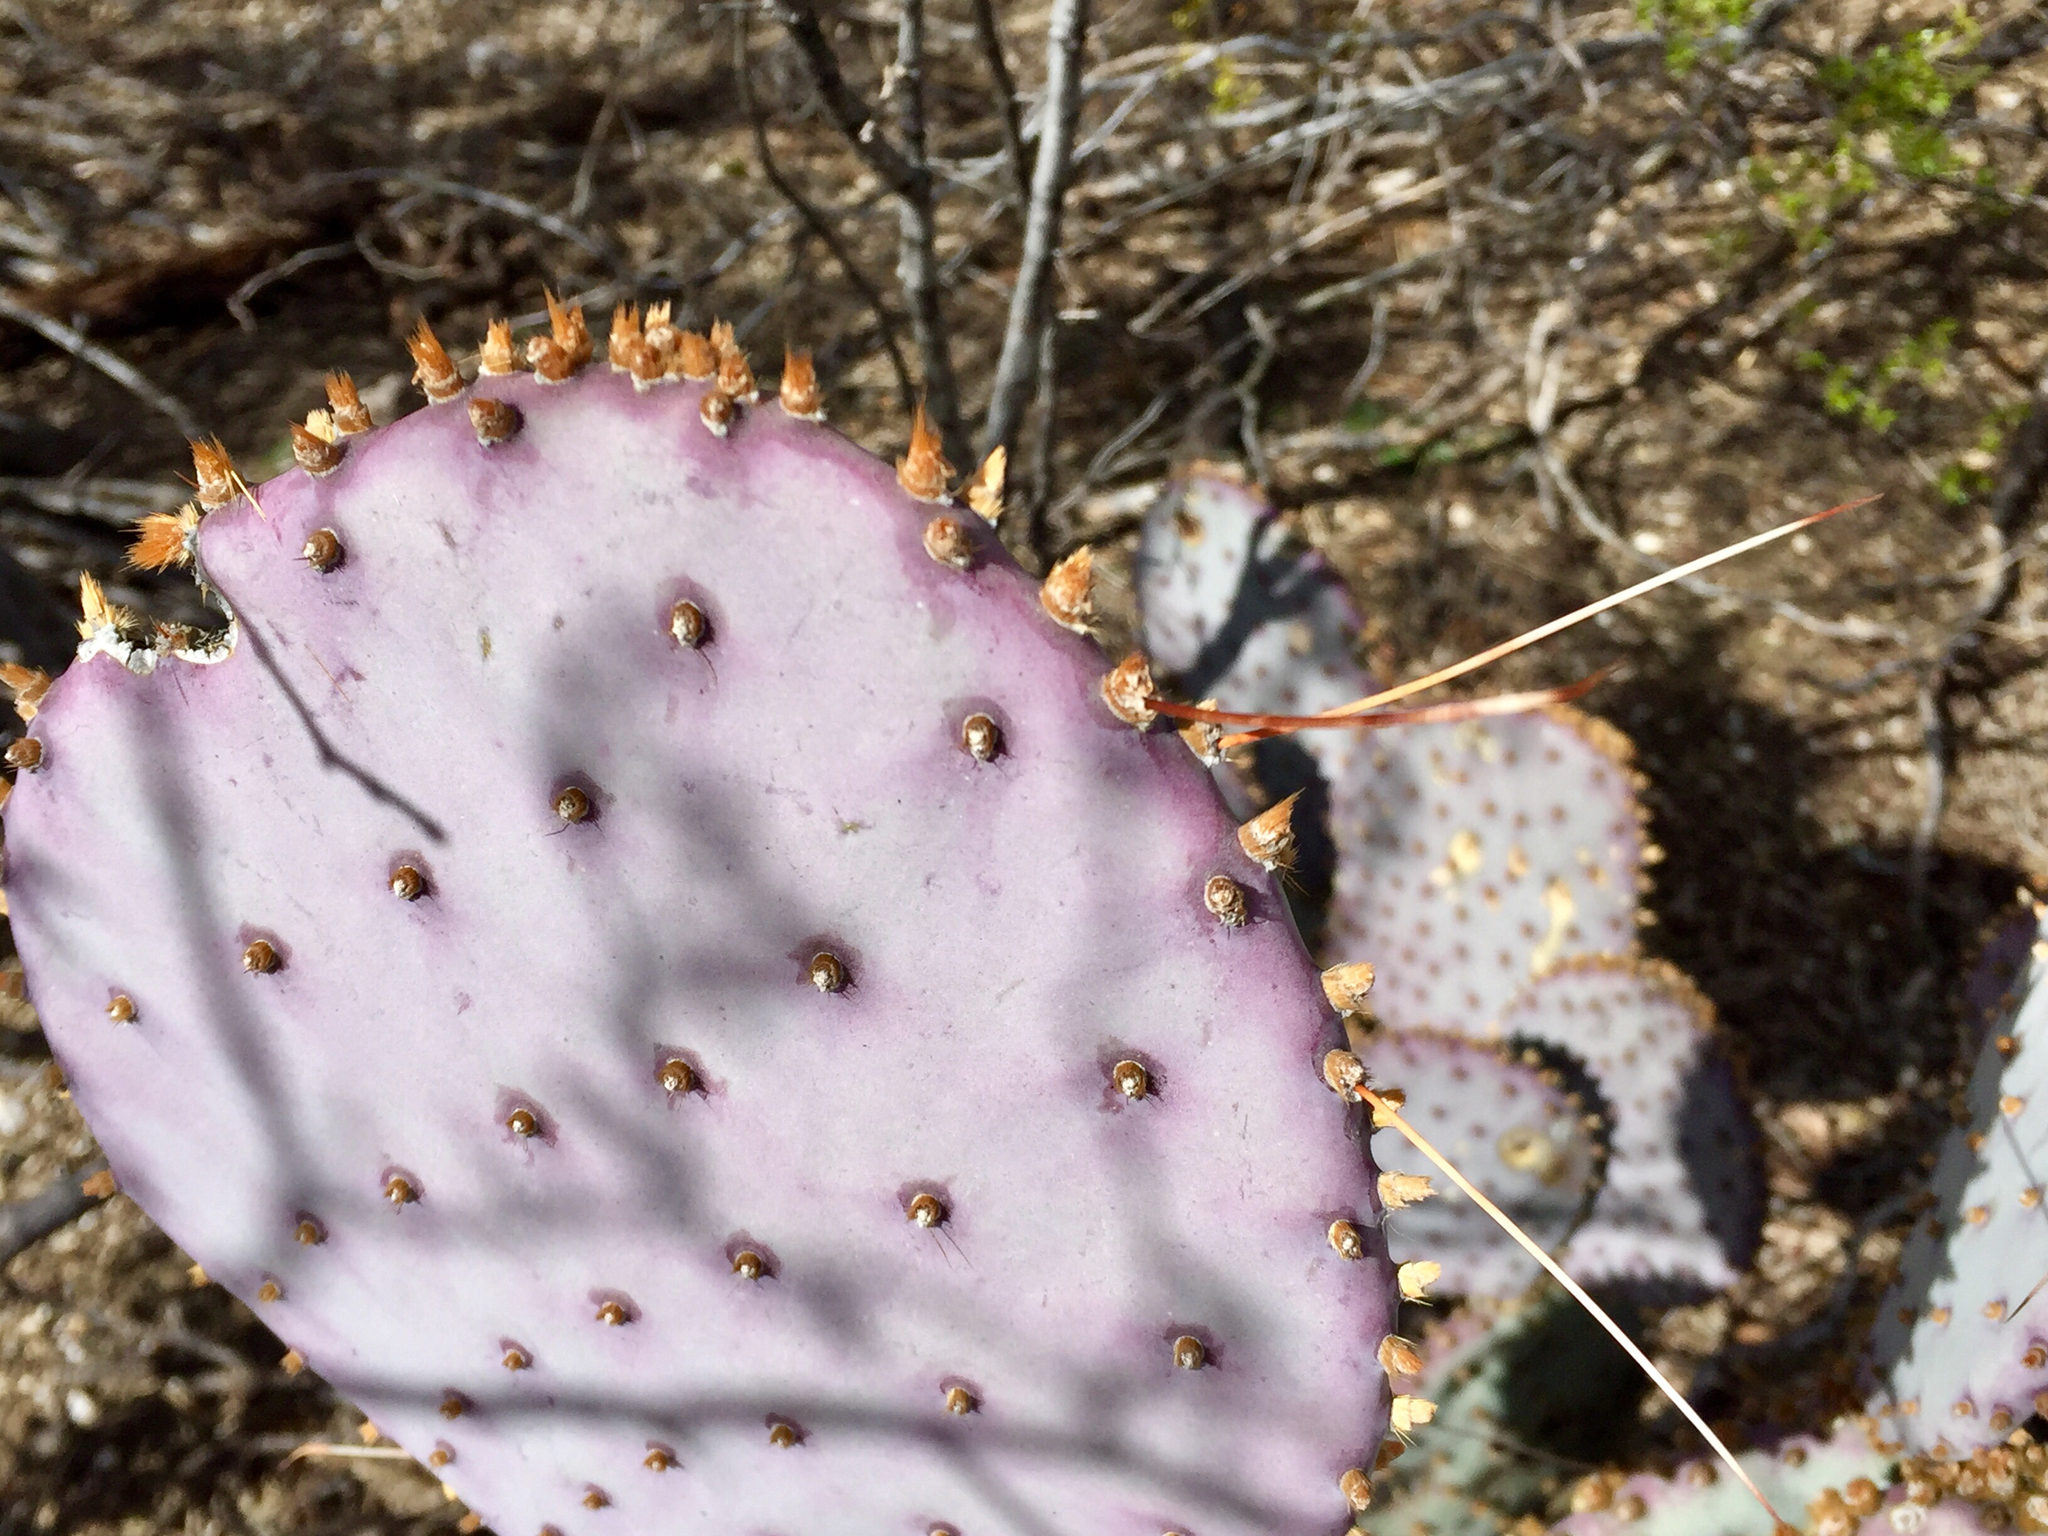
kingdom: Plantae
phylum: Tracheophyta
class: Magnoliopsida
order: Caryophyllales
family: Cactaceae
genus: Opuntia
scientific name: Opuntia gosseliniana
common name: Violet prickly-pear
